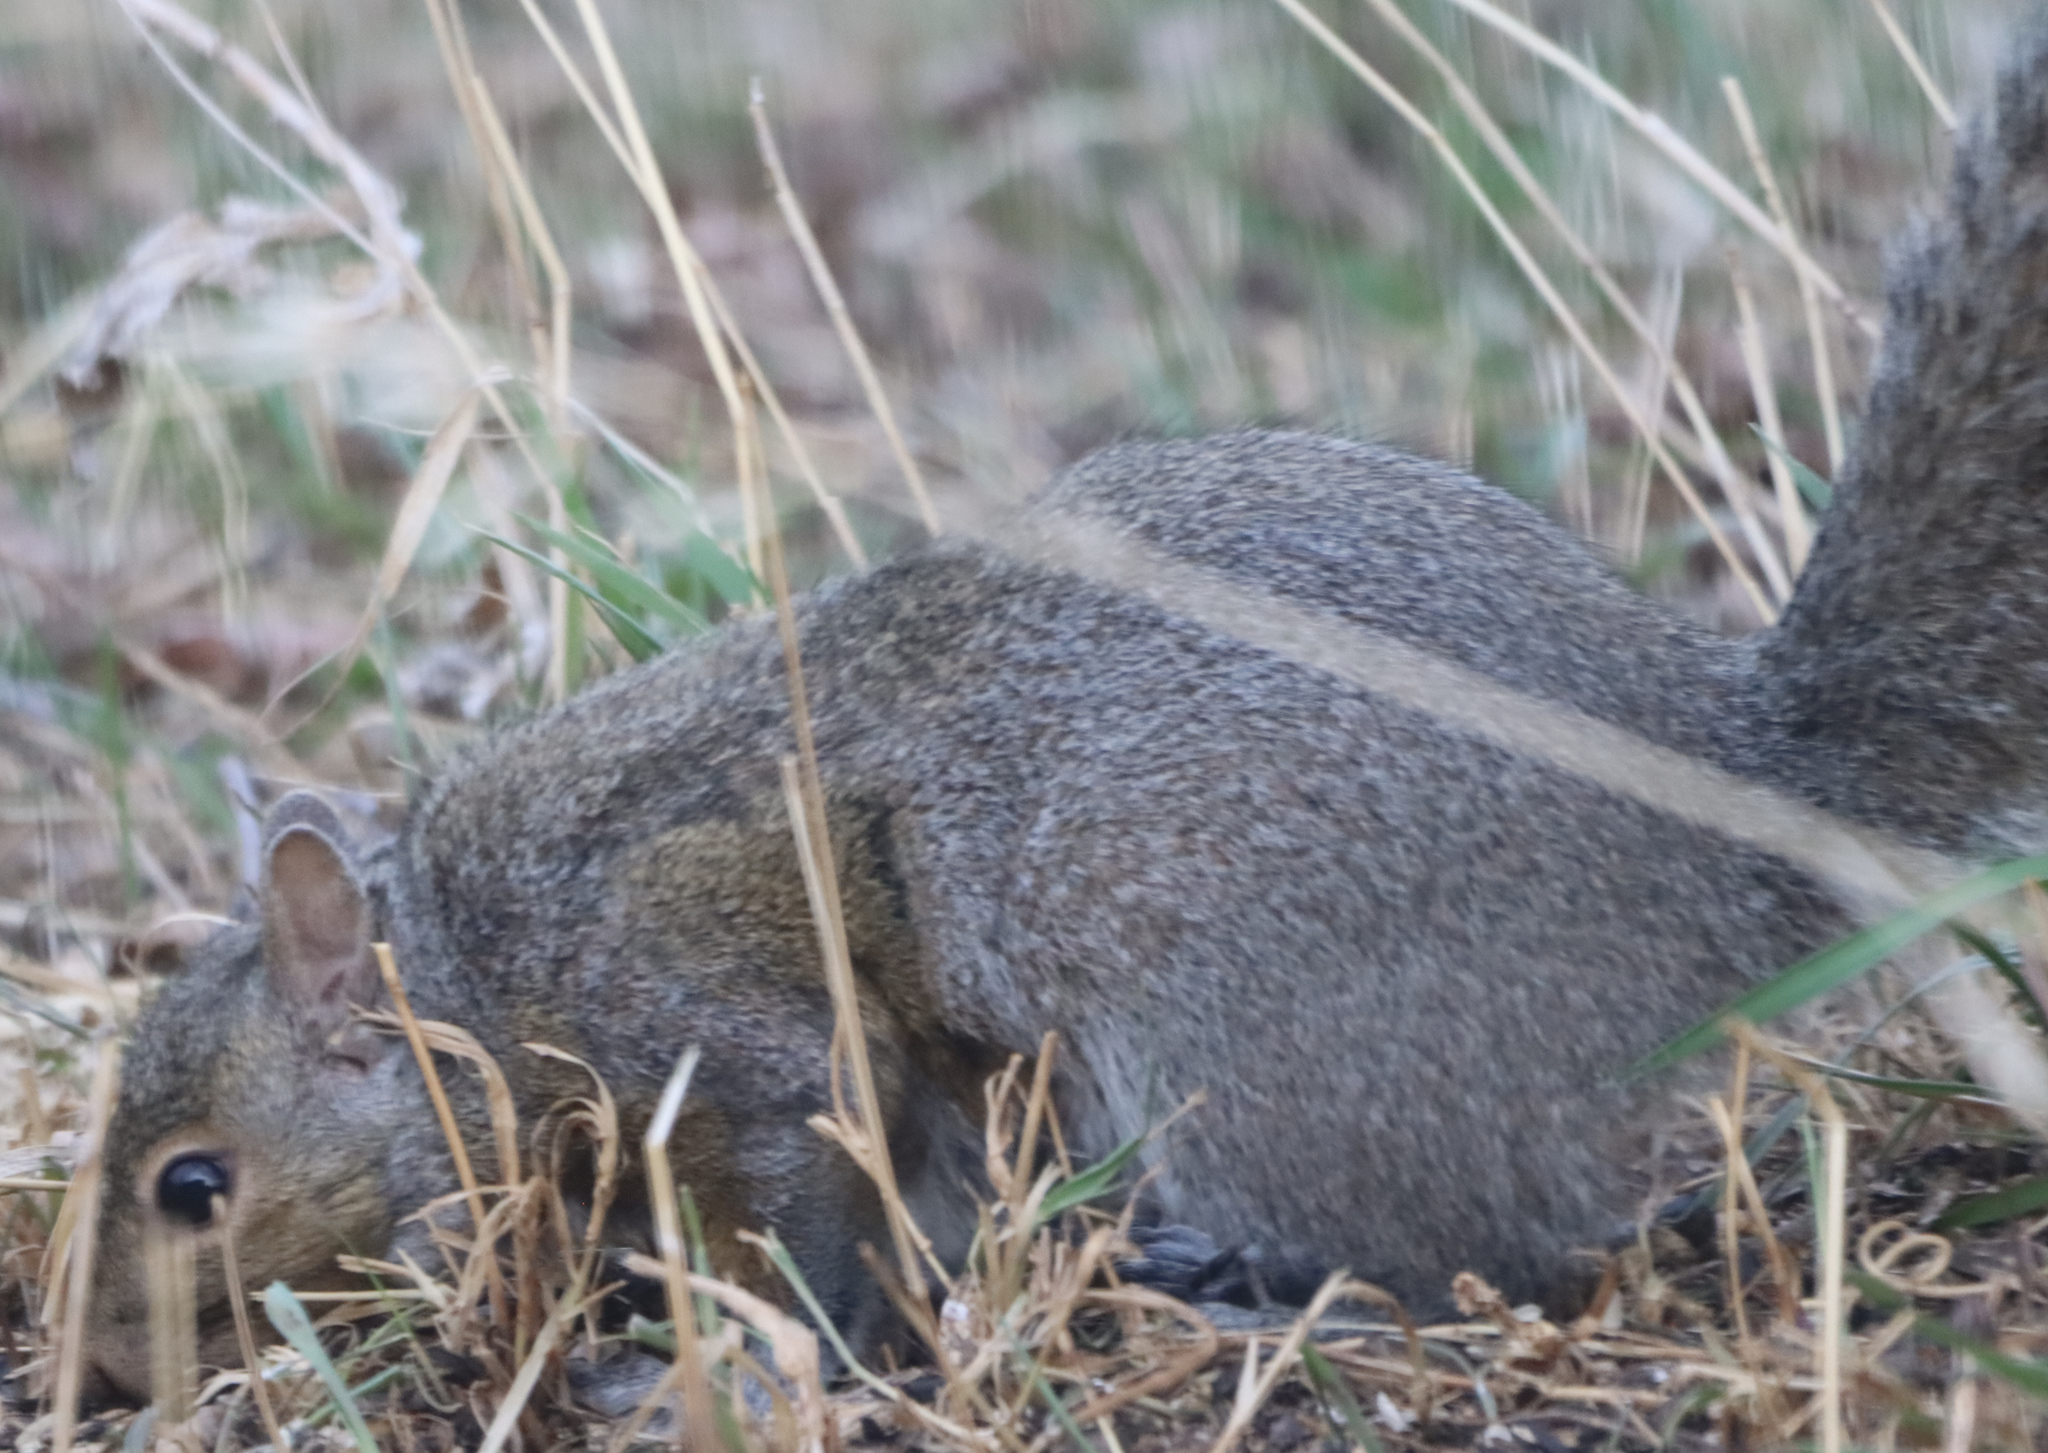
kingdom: Animalia
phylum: Chordata
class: Mammalia
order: Rodentia
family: Sciuridae
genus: Sciurus
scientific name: Sciurus carolinensis
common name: Eastern gray squirrel
